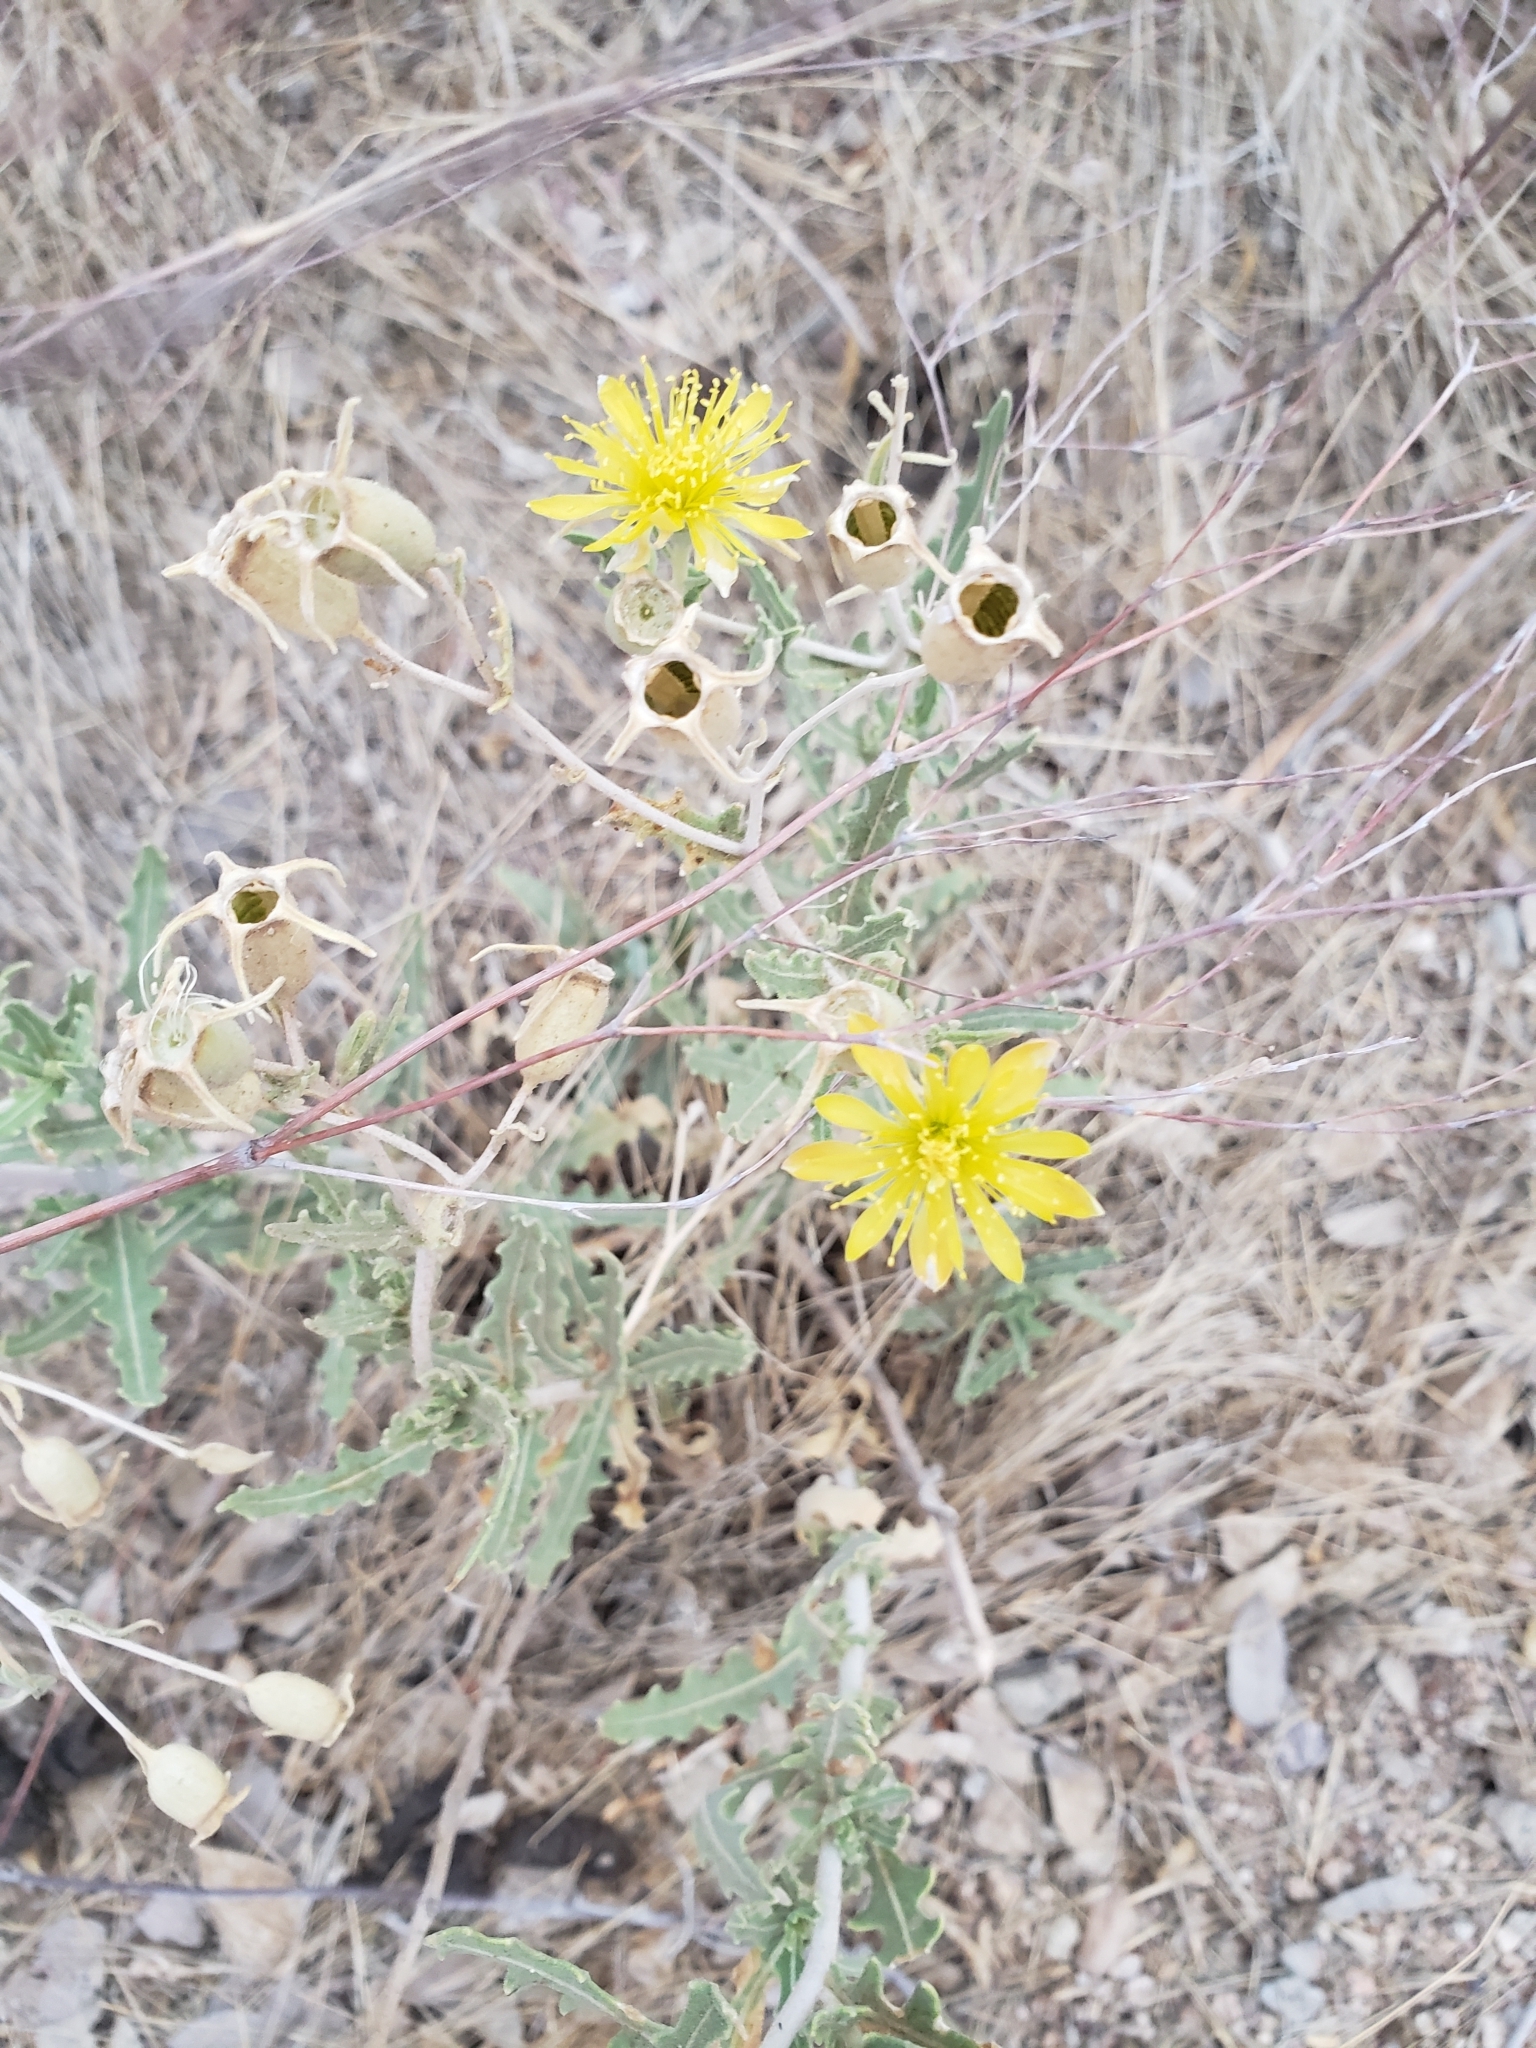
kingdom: Plantae
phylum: Tracheophyta
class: Magnoliopsida
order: Cornales
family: Loasaceae
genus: Mentzelia
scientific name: Mentzelia longiloba
